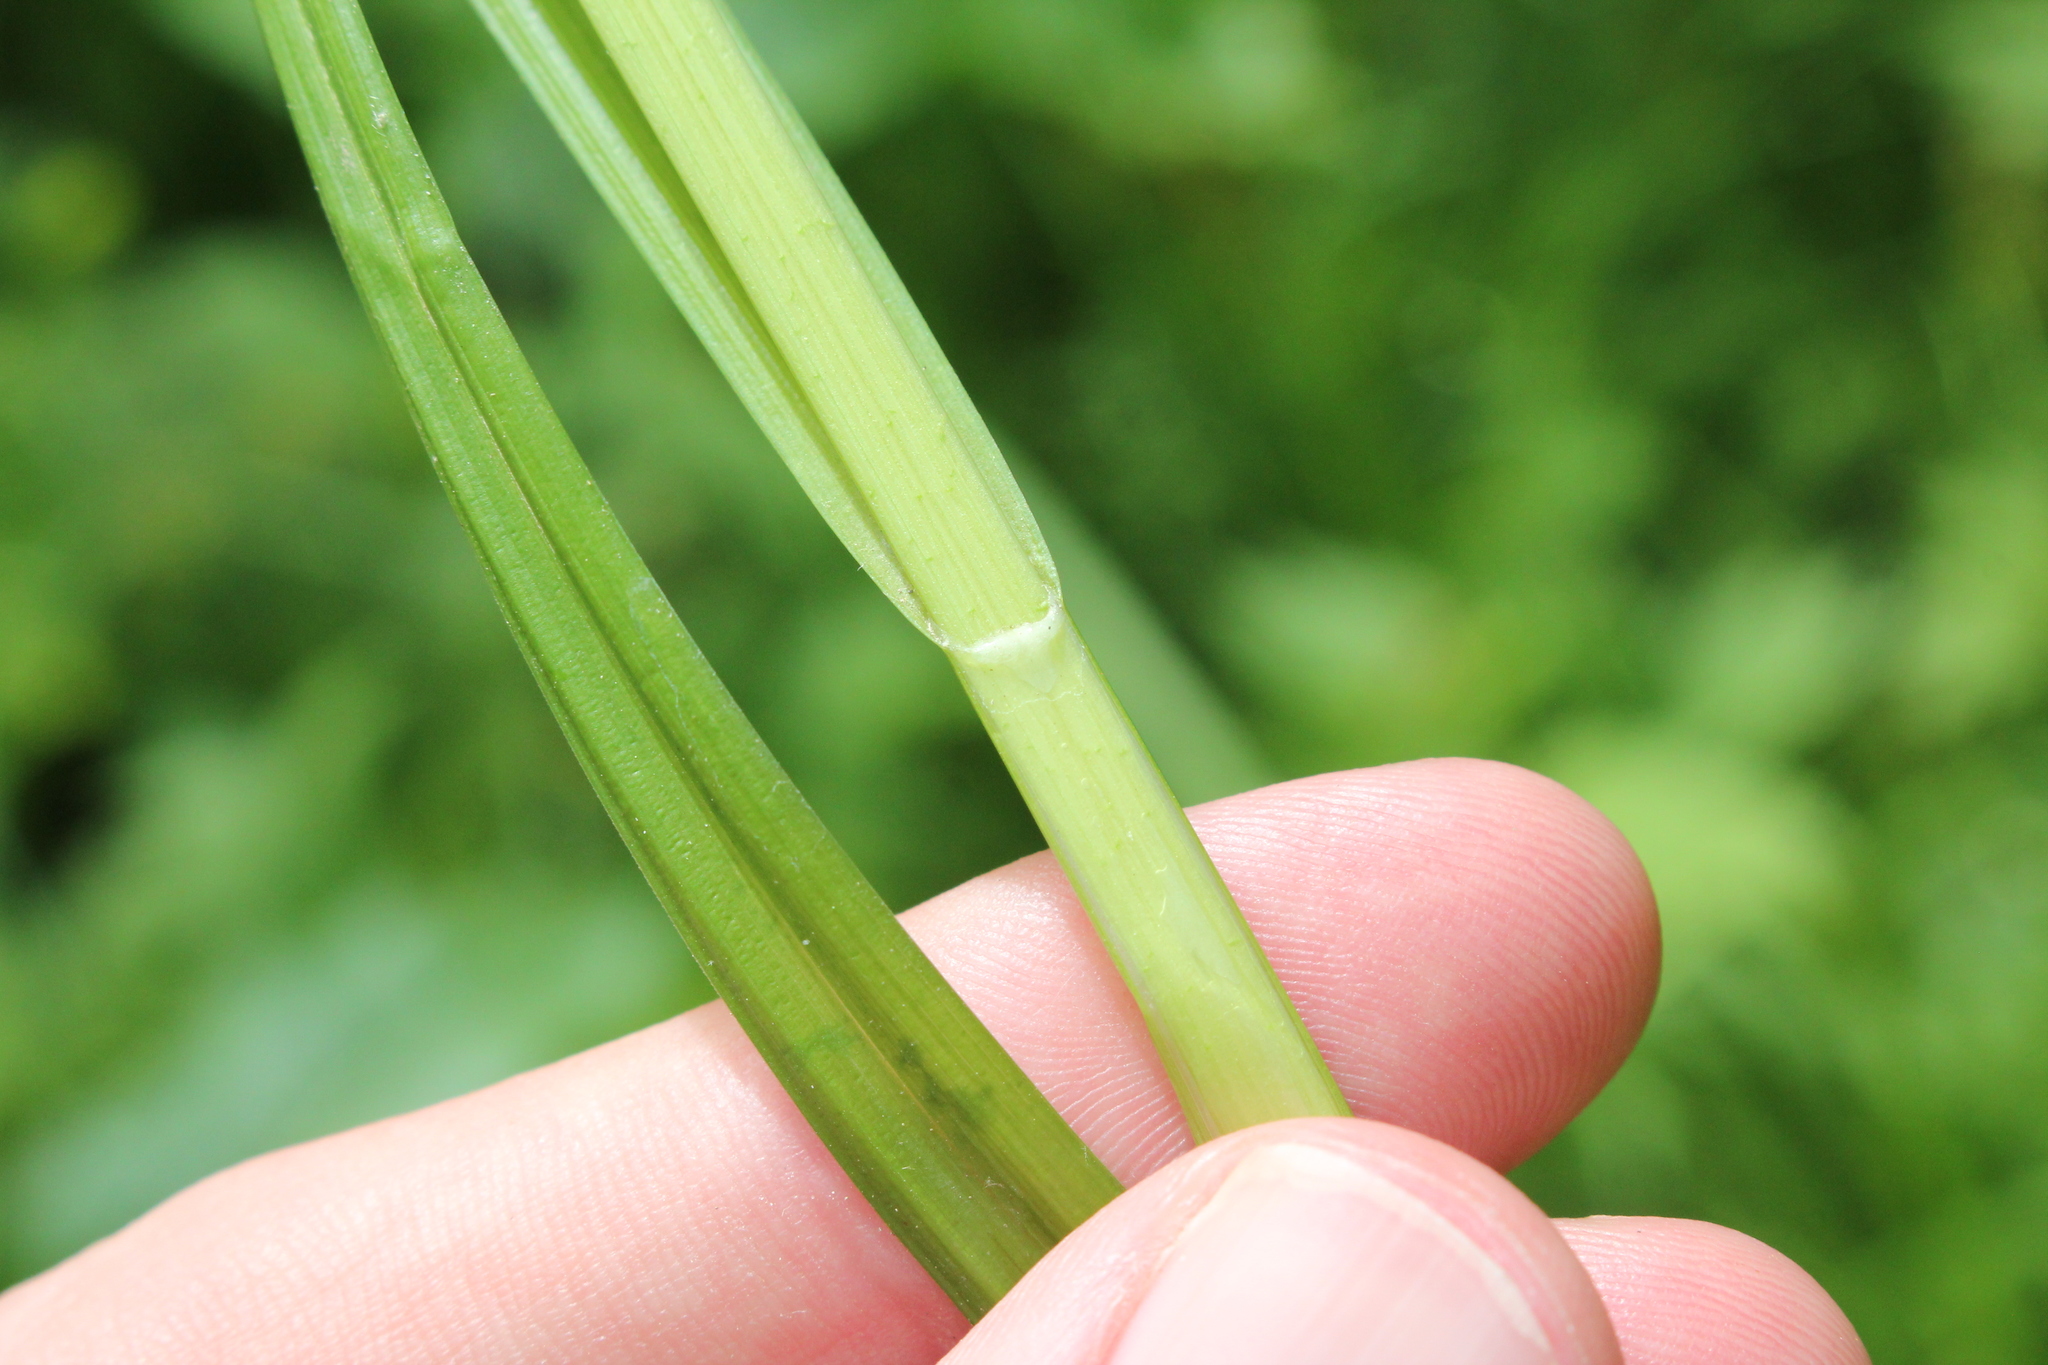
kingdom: Plantae
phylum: Tracheophyta
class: Liliopsida
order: Poales
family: Cyperaceae
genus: Carex
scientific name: Carex laevivaginata
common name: Smooth-sheathed fox sedge
